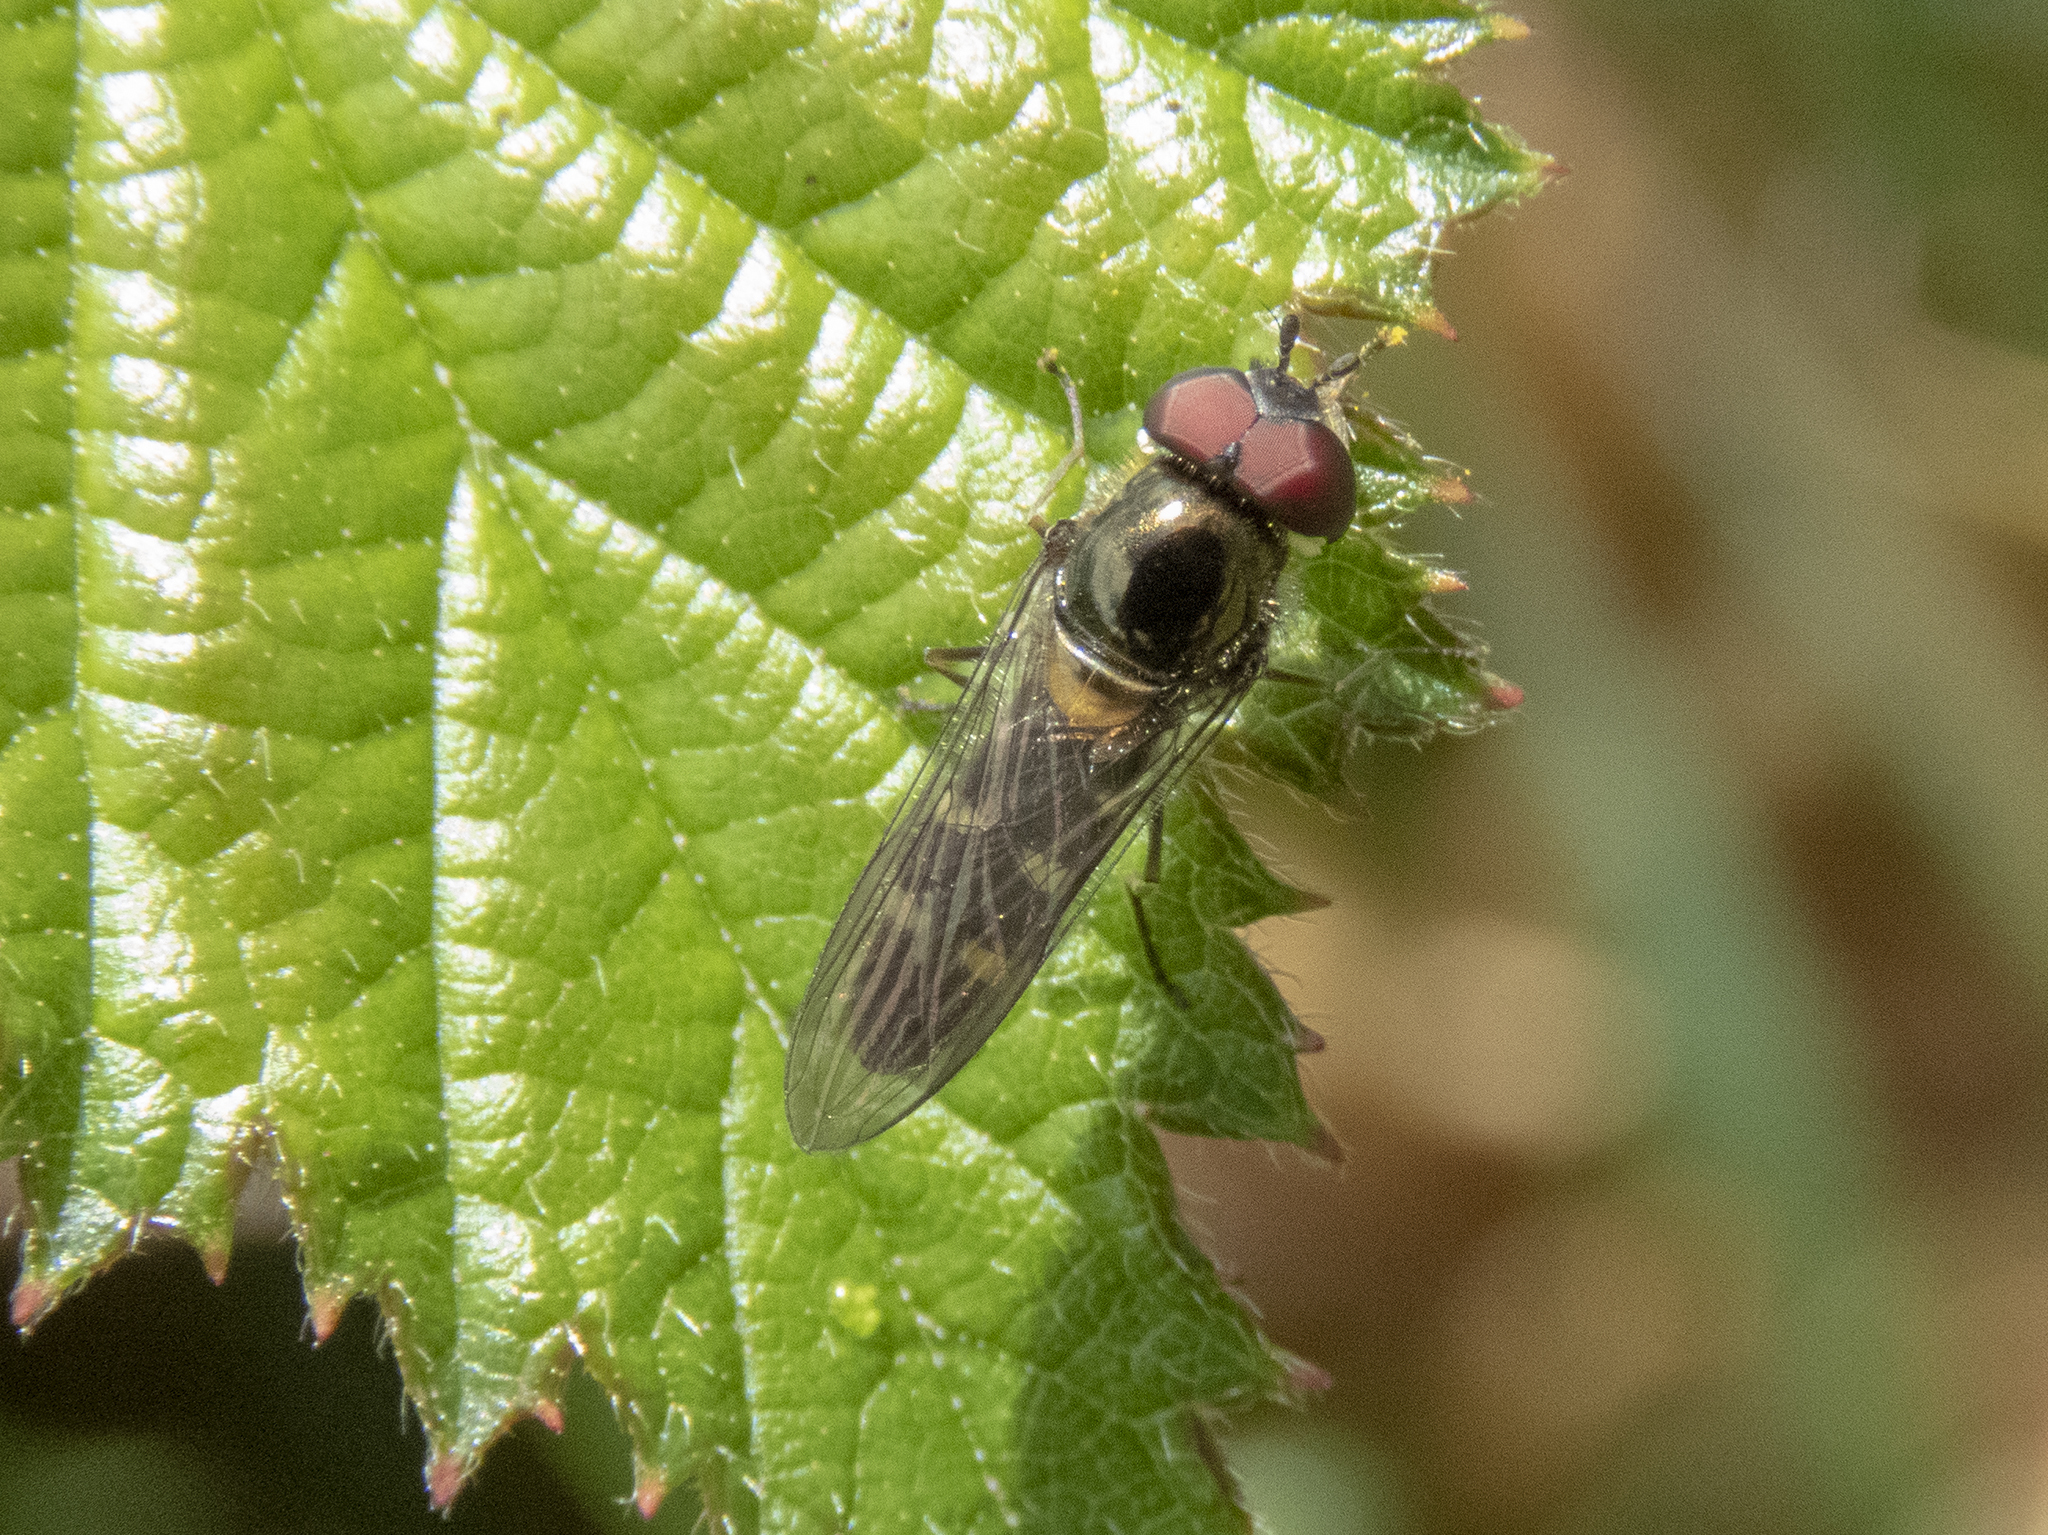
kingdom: Animalia
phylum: Arthropoda
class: Insecta
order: Diptera
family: Syrphidae
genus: Melangyna
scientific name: Melangyna novaezelandiae
